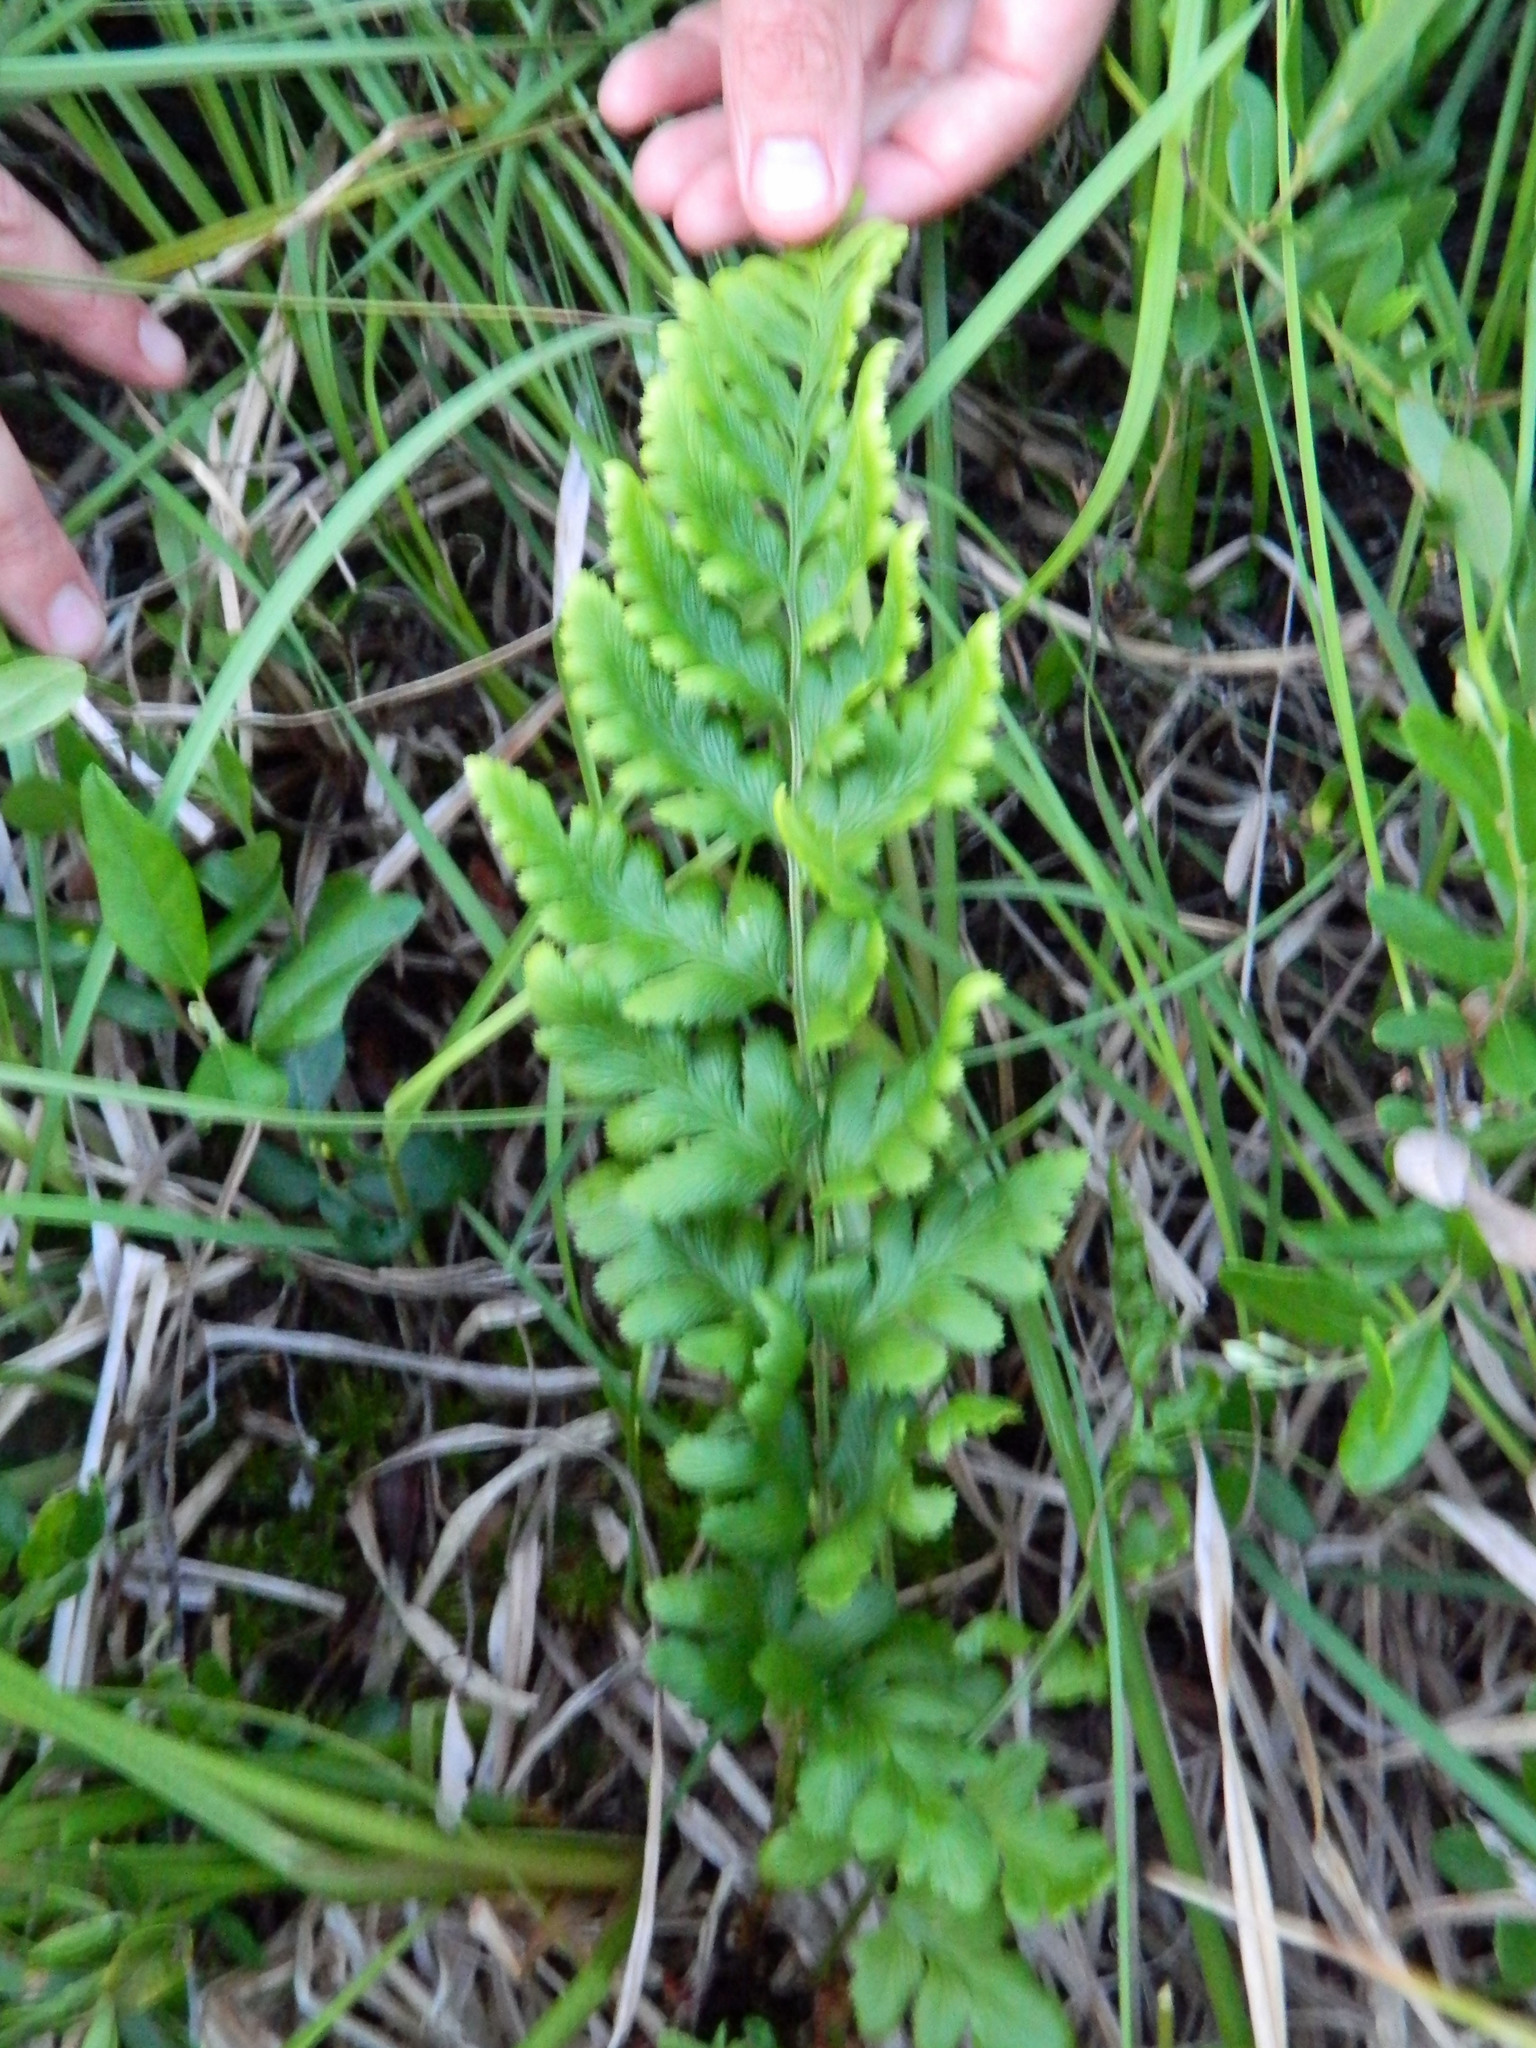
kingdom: Plantae
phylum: Tracheophyta
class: Polypodiopsida
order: Polypodiales
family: Dryopteridaceae
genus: Dryopteris
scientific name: Dryopteris cristata
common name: Crested wood fern
